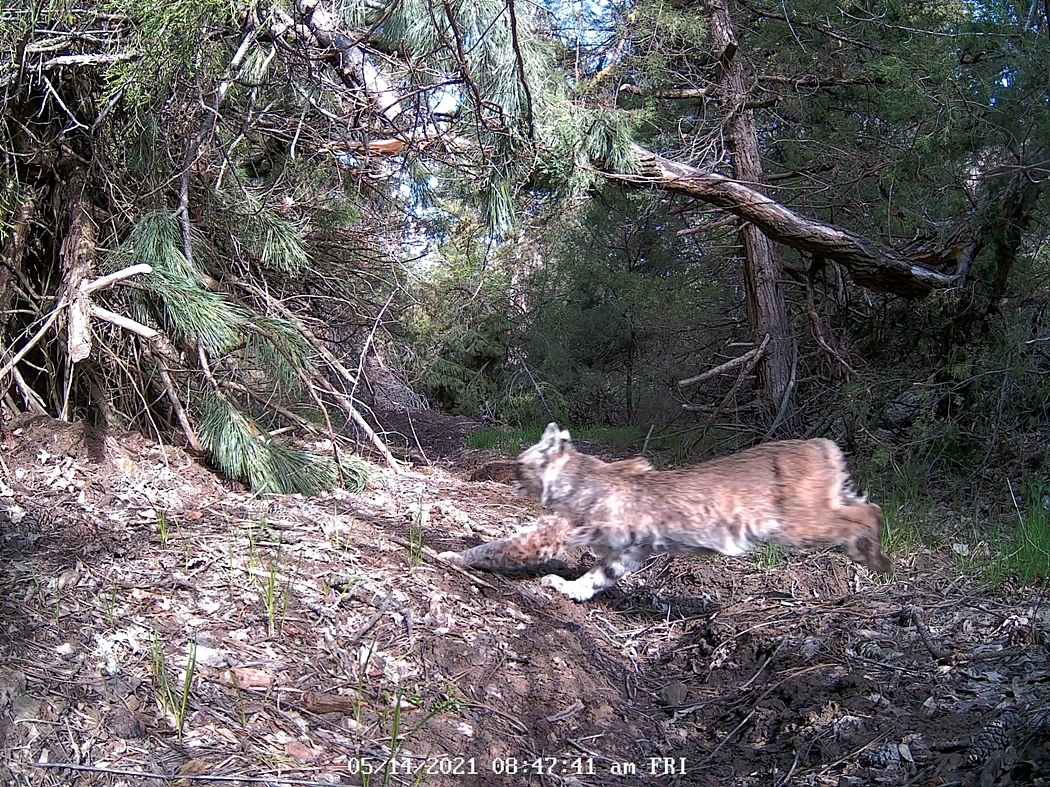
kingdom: Animalia
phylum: Chordata
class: Mammalia
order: Carnivora
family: Felidae
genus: Lynx
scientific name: Lynx rufus
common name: Bobcat
